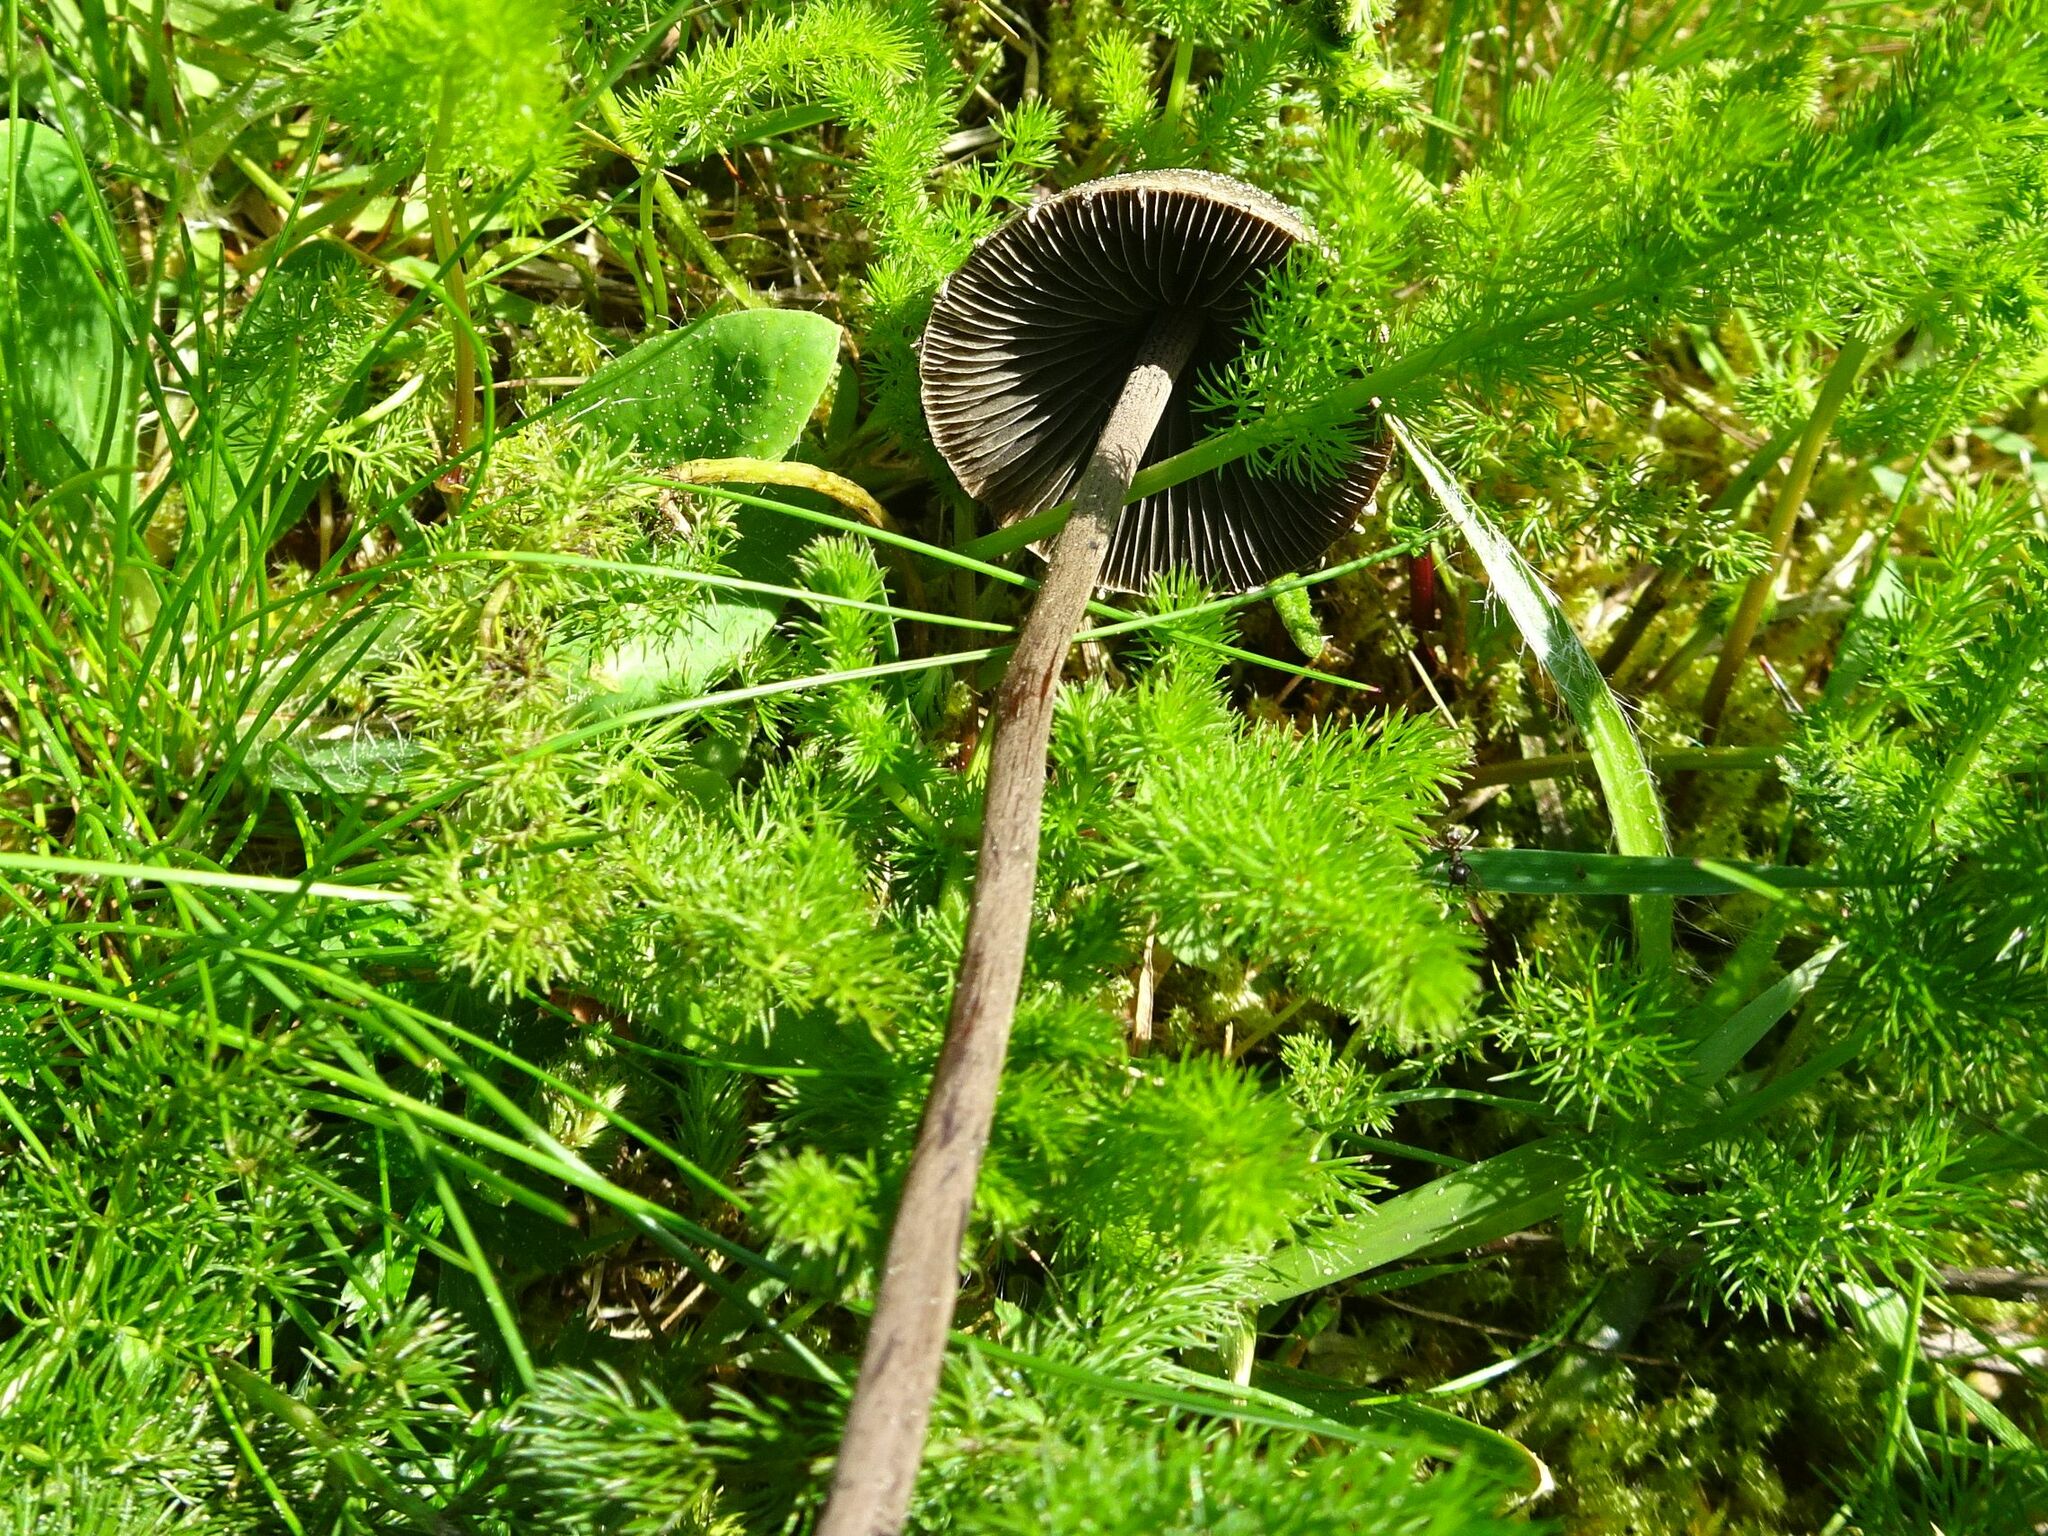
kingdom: Fungi
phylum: Basidiomycota
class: Agaricomycetes
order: Agaricales
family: Bolbitiaceae
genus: Panaeolus
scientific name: Panaeolus papilionaceus
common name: Petticoat mottlegill
